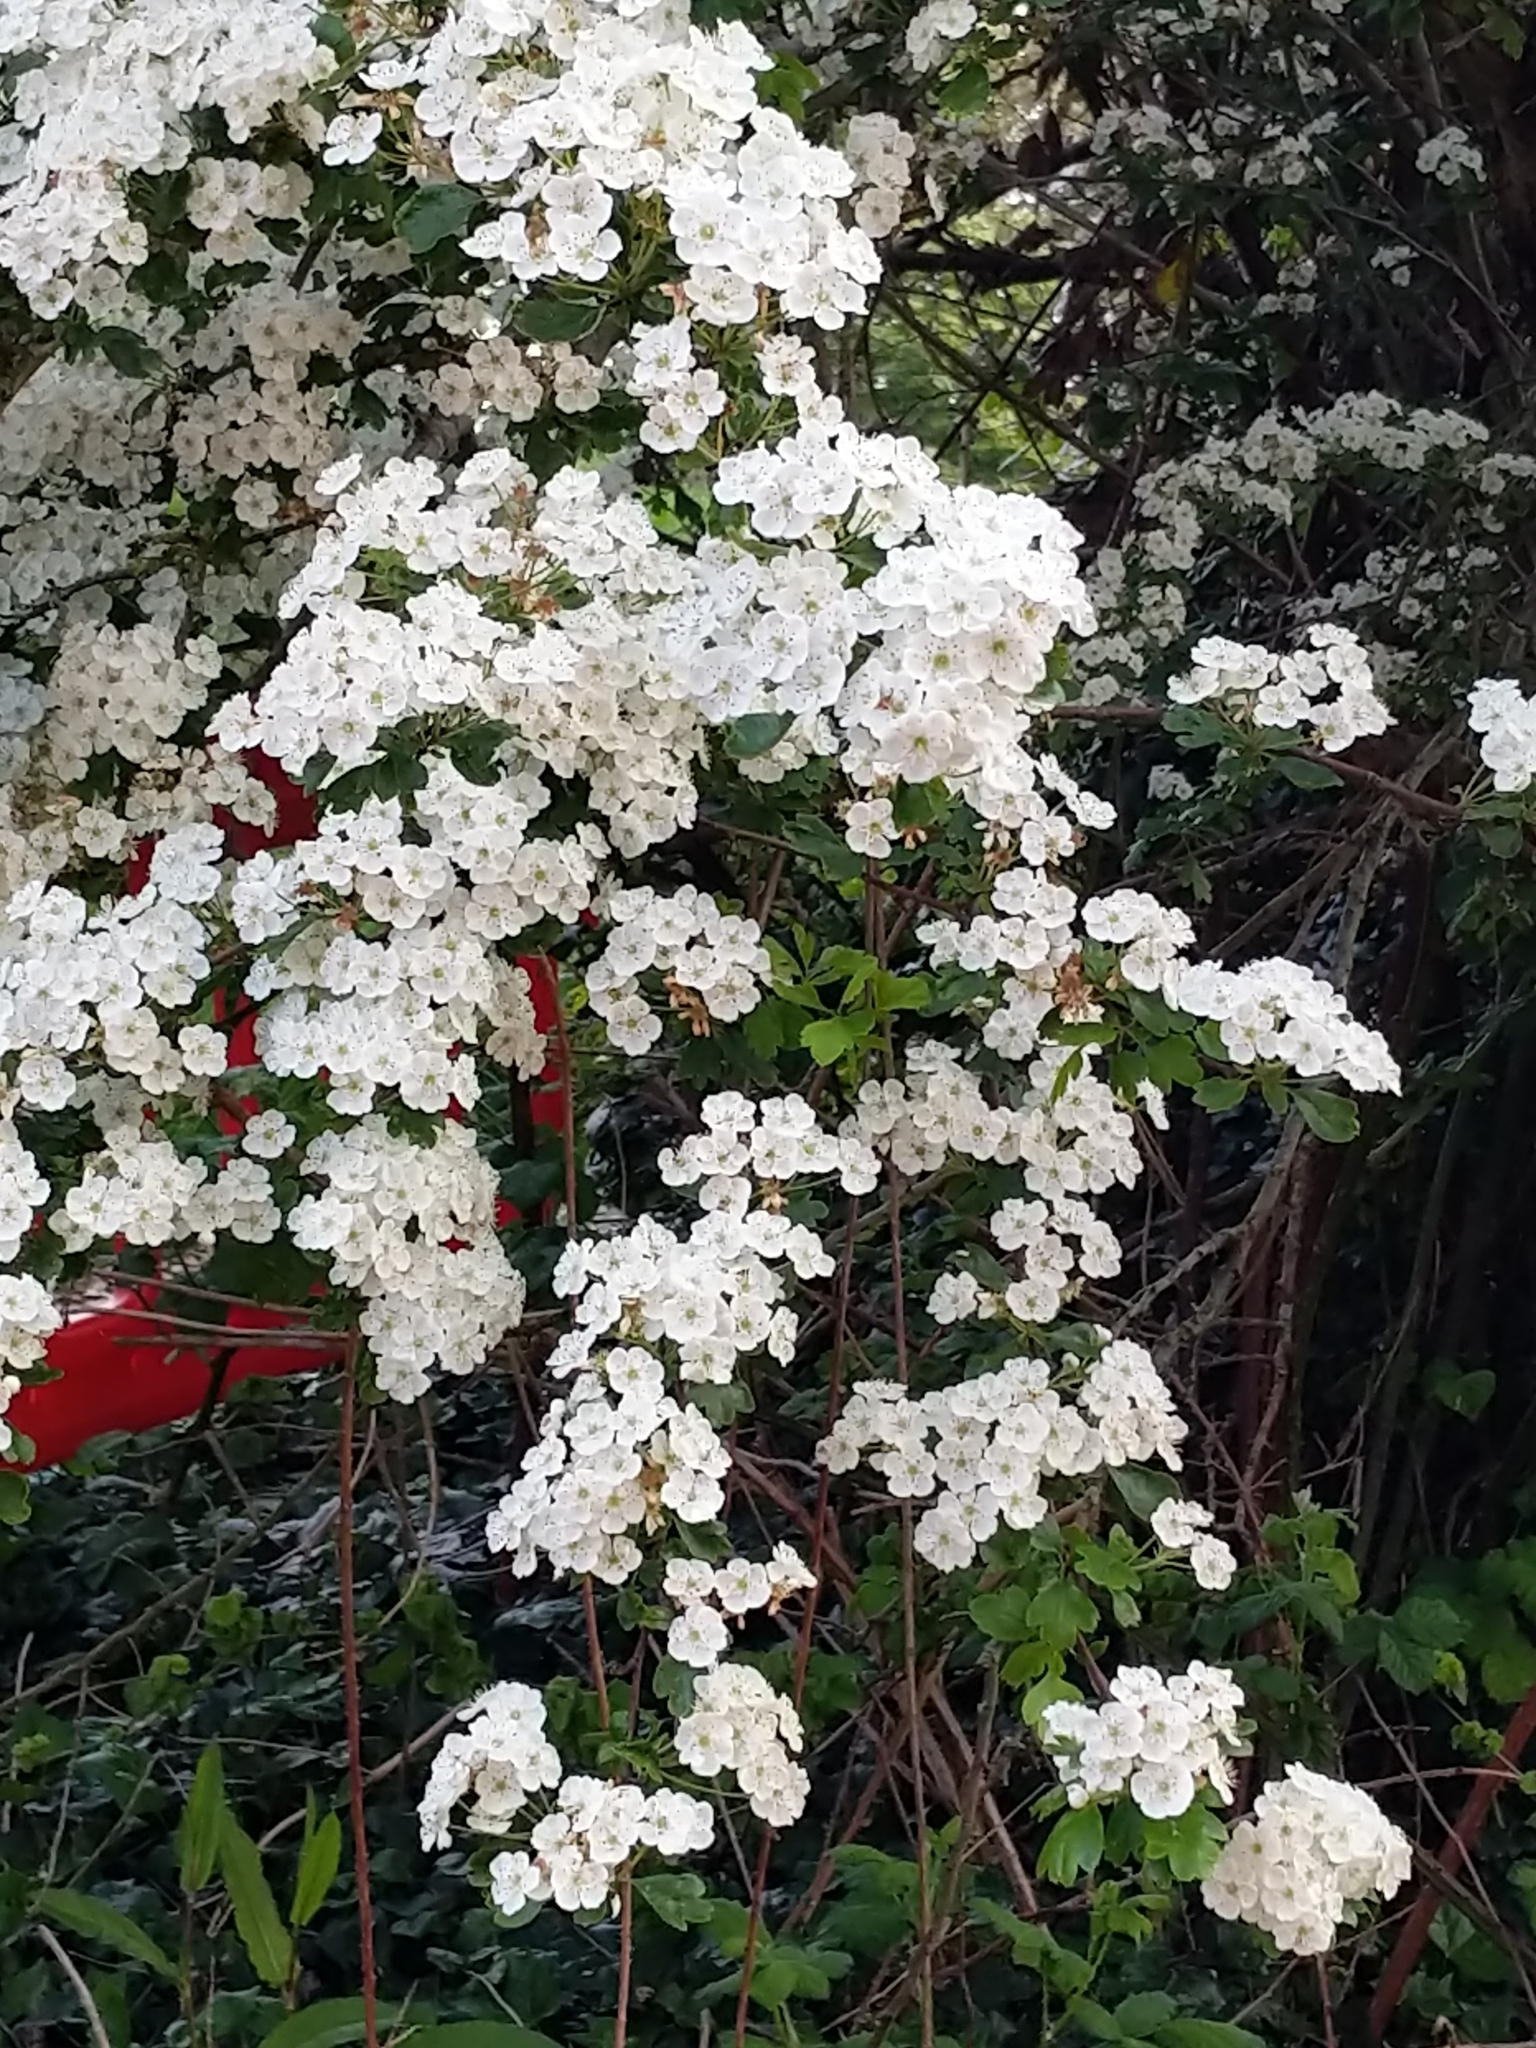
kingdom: Plantae
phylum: Tracheophyta
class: Magnoliopsida
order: Rosales
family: Rosaceae
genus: Crataegus
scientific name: Crataegus monogyna
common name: Hawthorn
